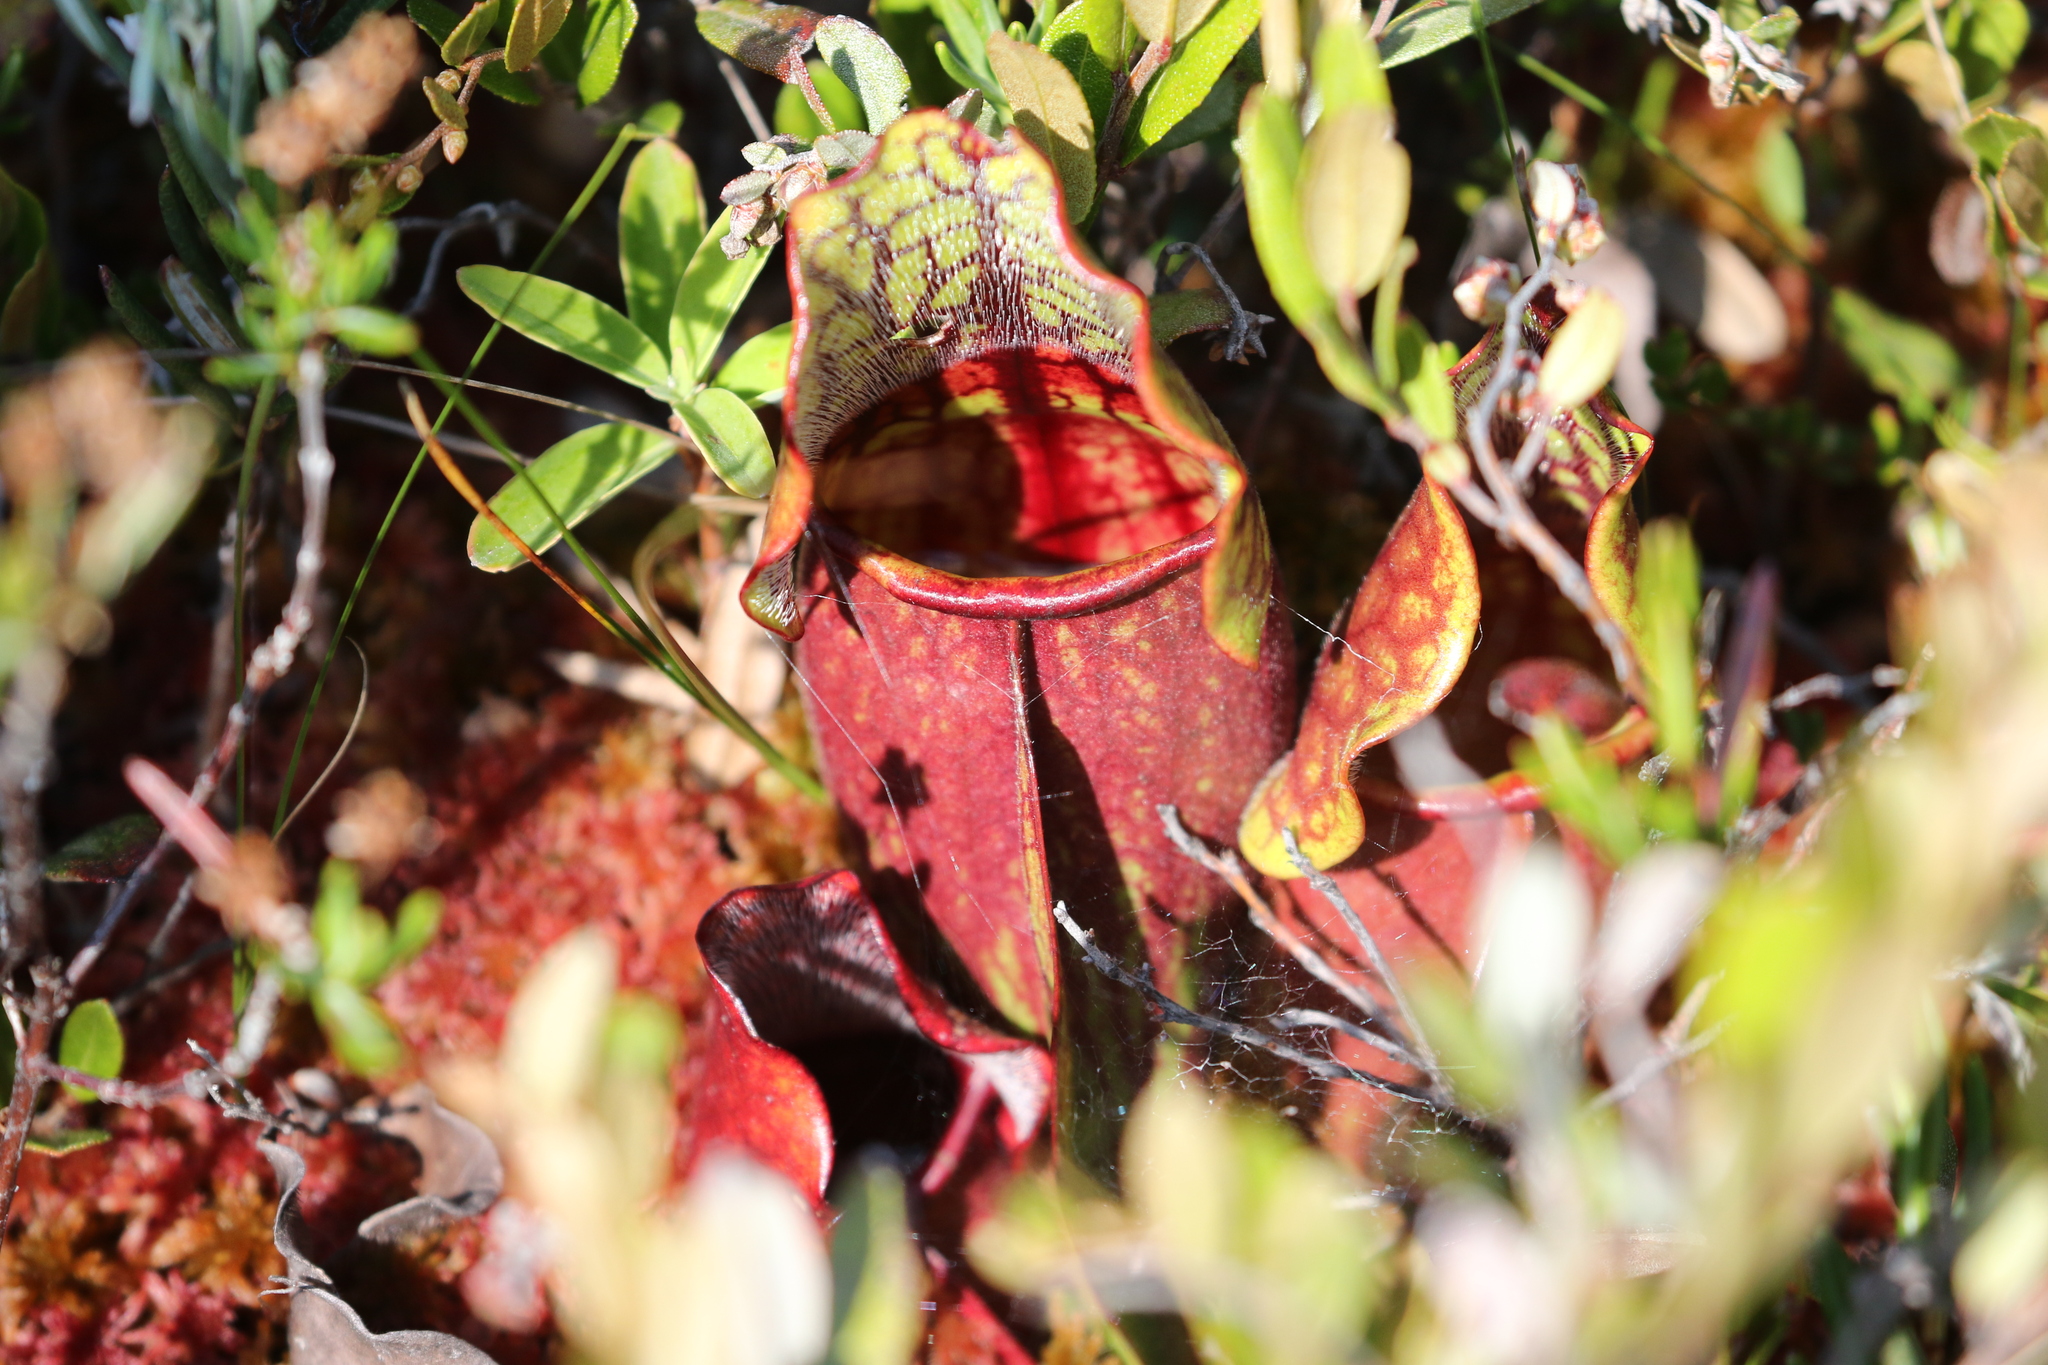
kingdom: Plantae
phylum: Tracheophyta
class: Magnoliopsida
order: Ericales
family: Sarraceniaceae
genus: Sarracenia
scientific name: Sarracenia purpurea
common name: Pitcherplant
